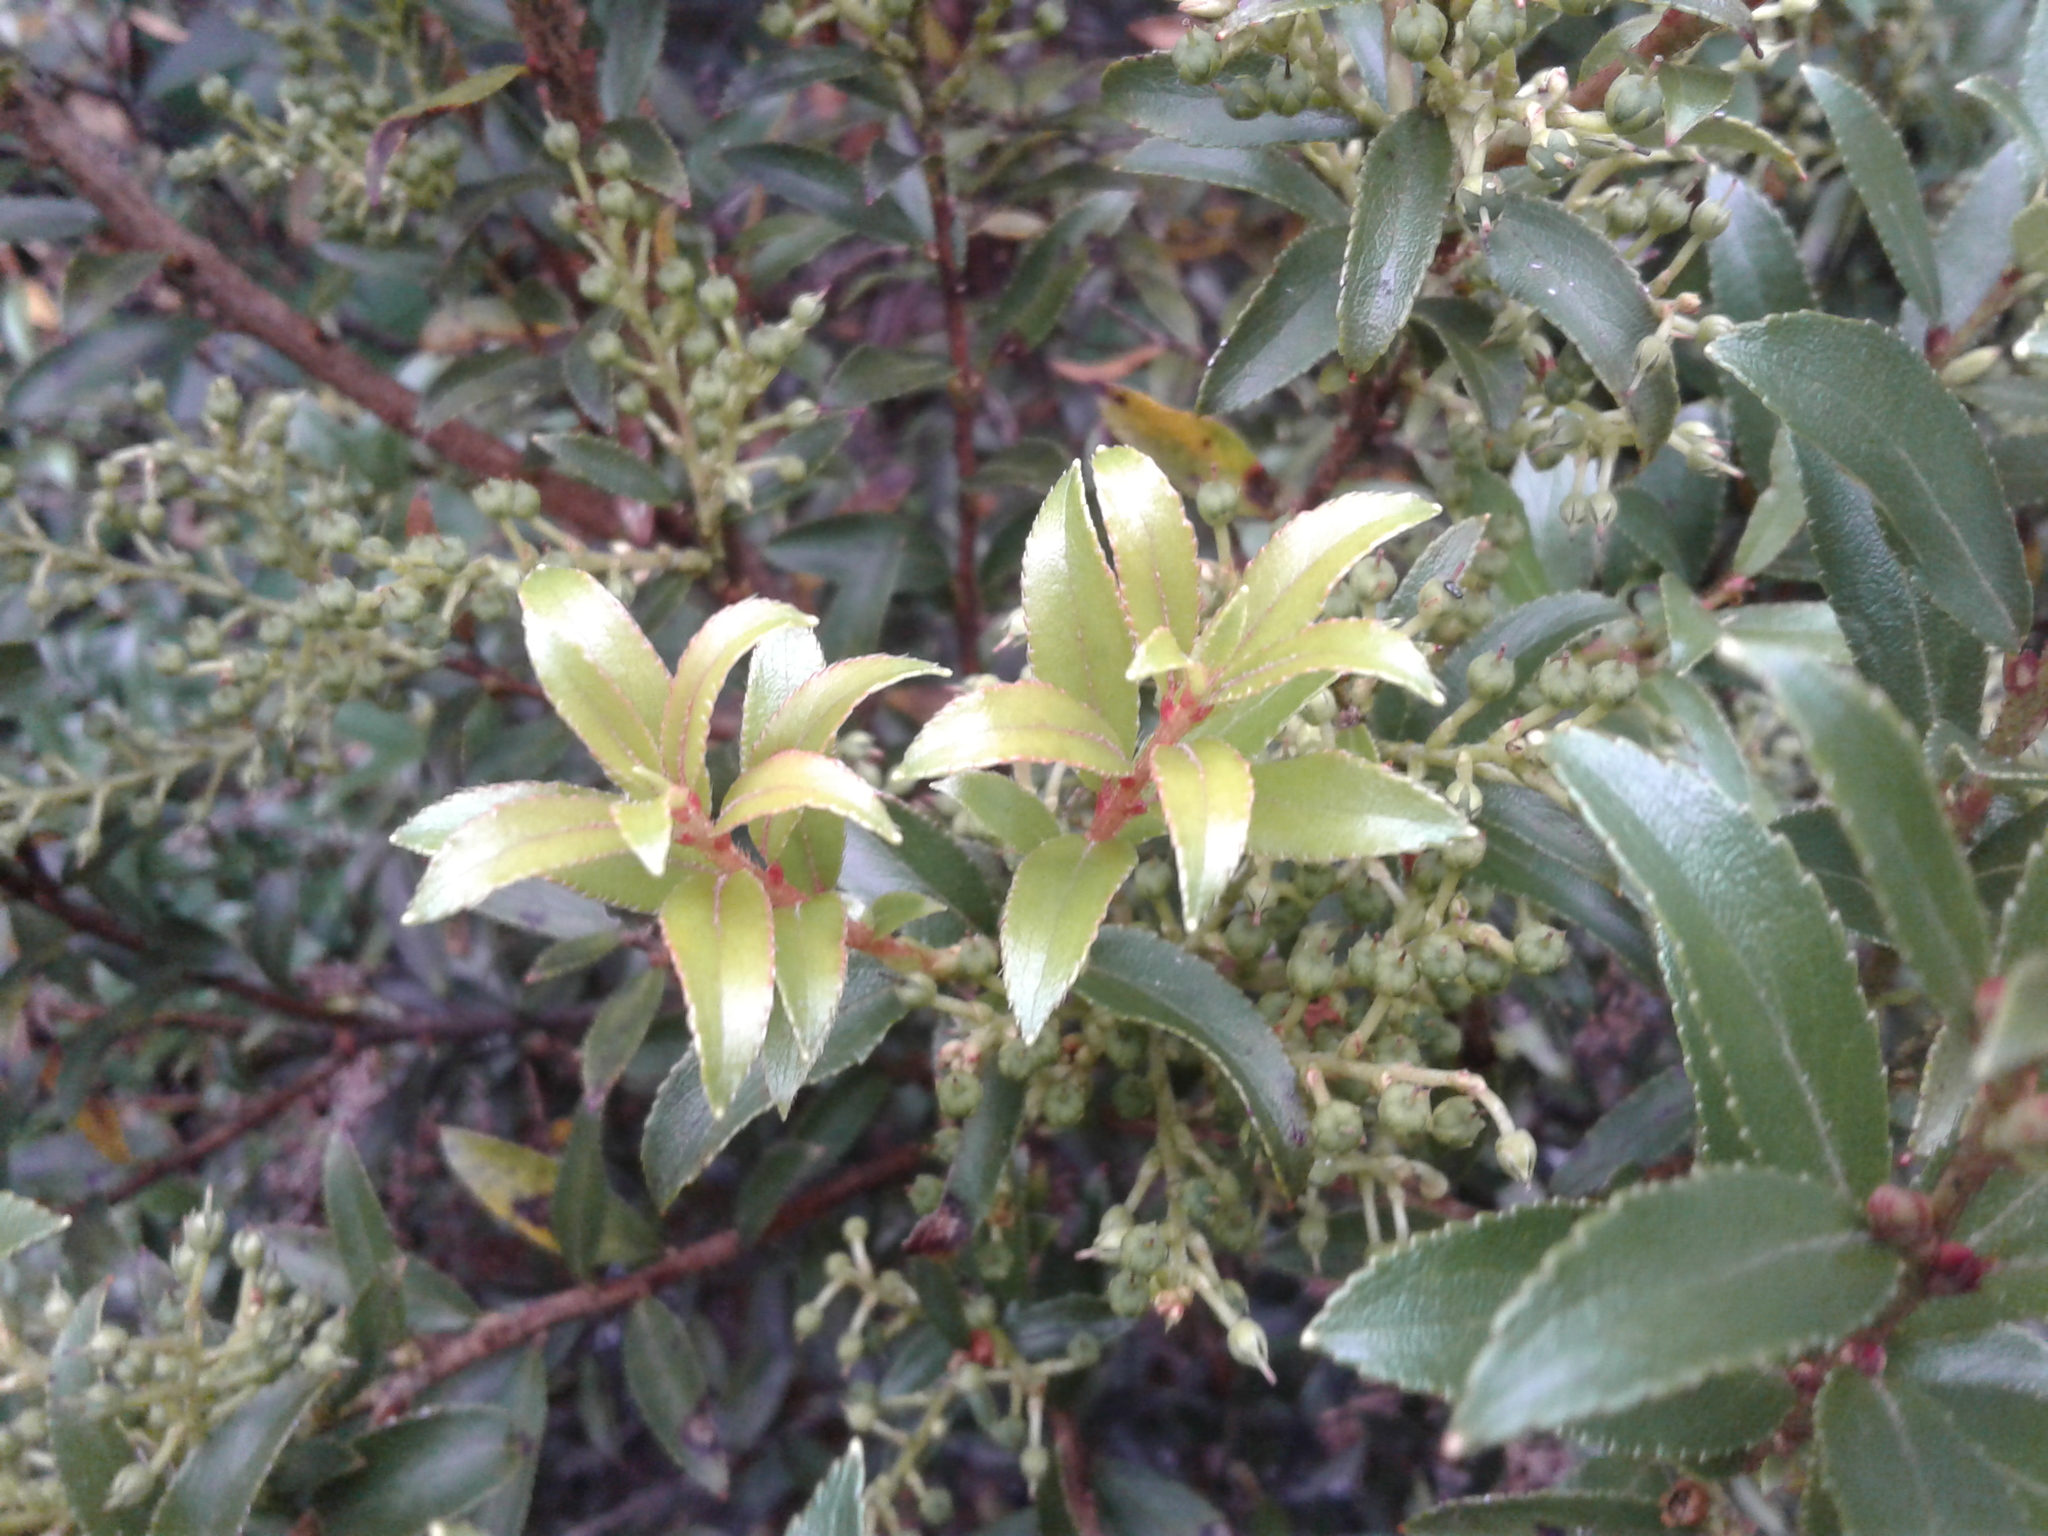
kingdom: Plantae
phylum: Tracheophyta
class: Magnoliopsida
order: Ericales
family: Ericaceae
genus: Gaultheria
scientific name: Gaultheria rupestris
